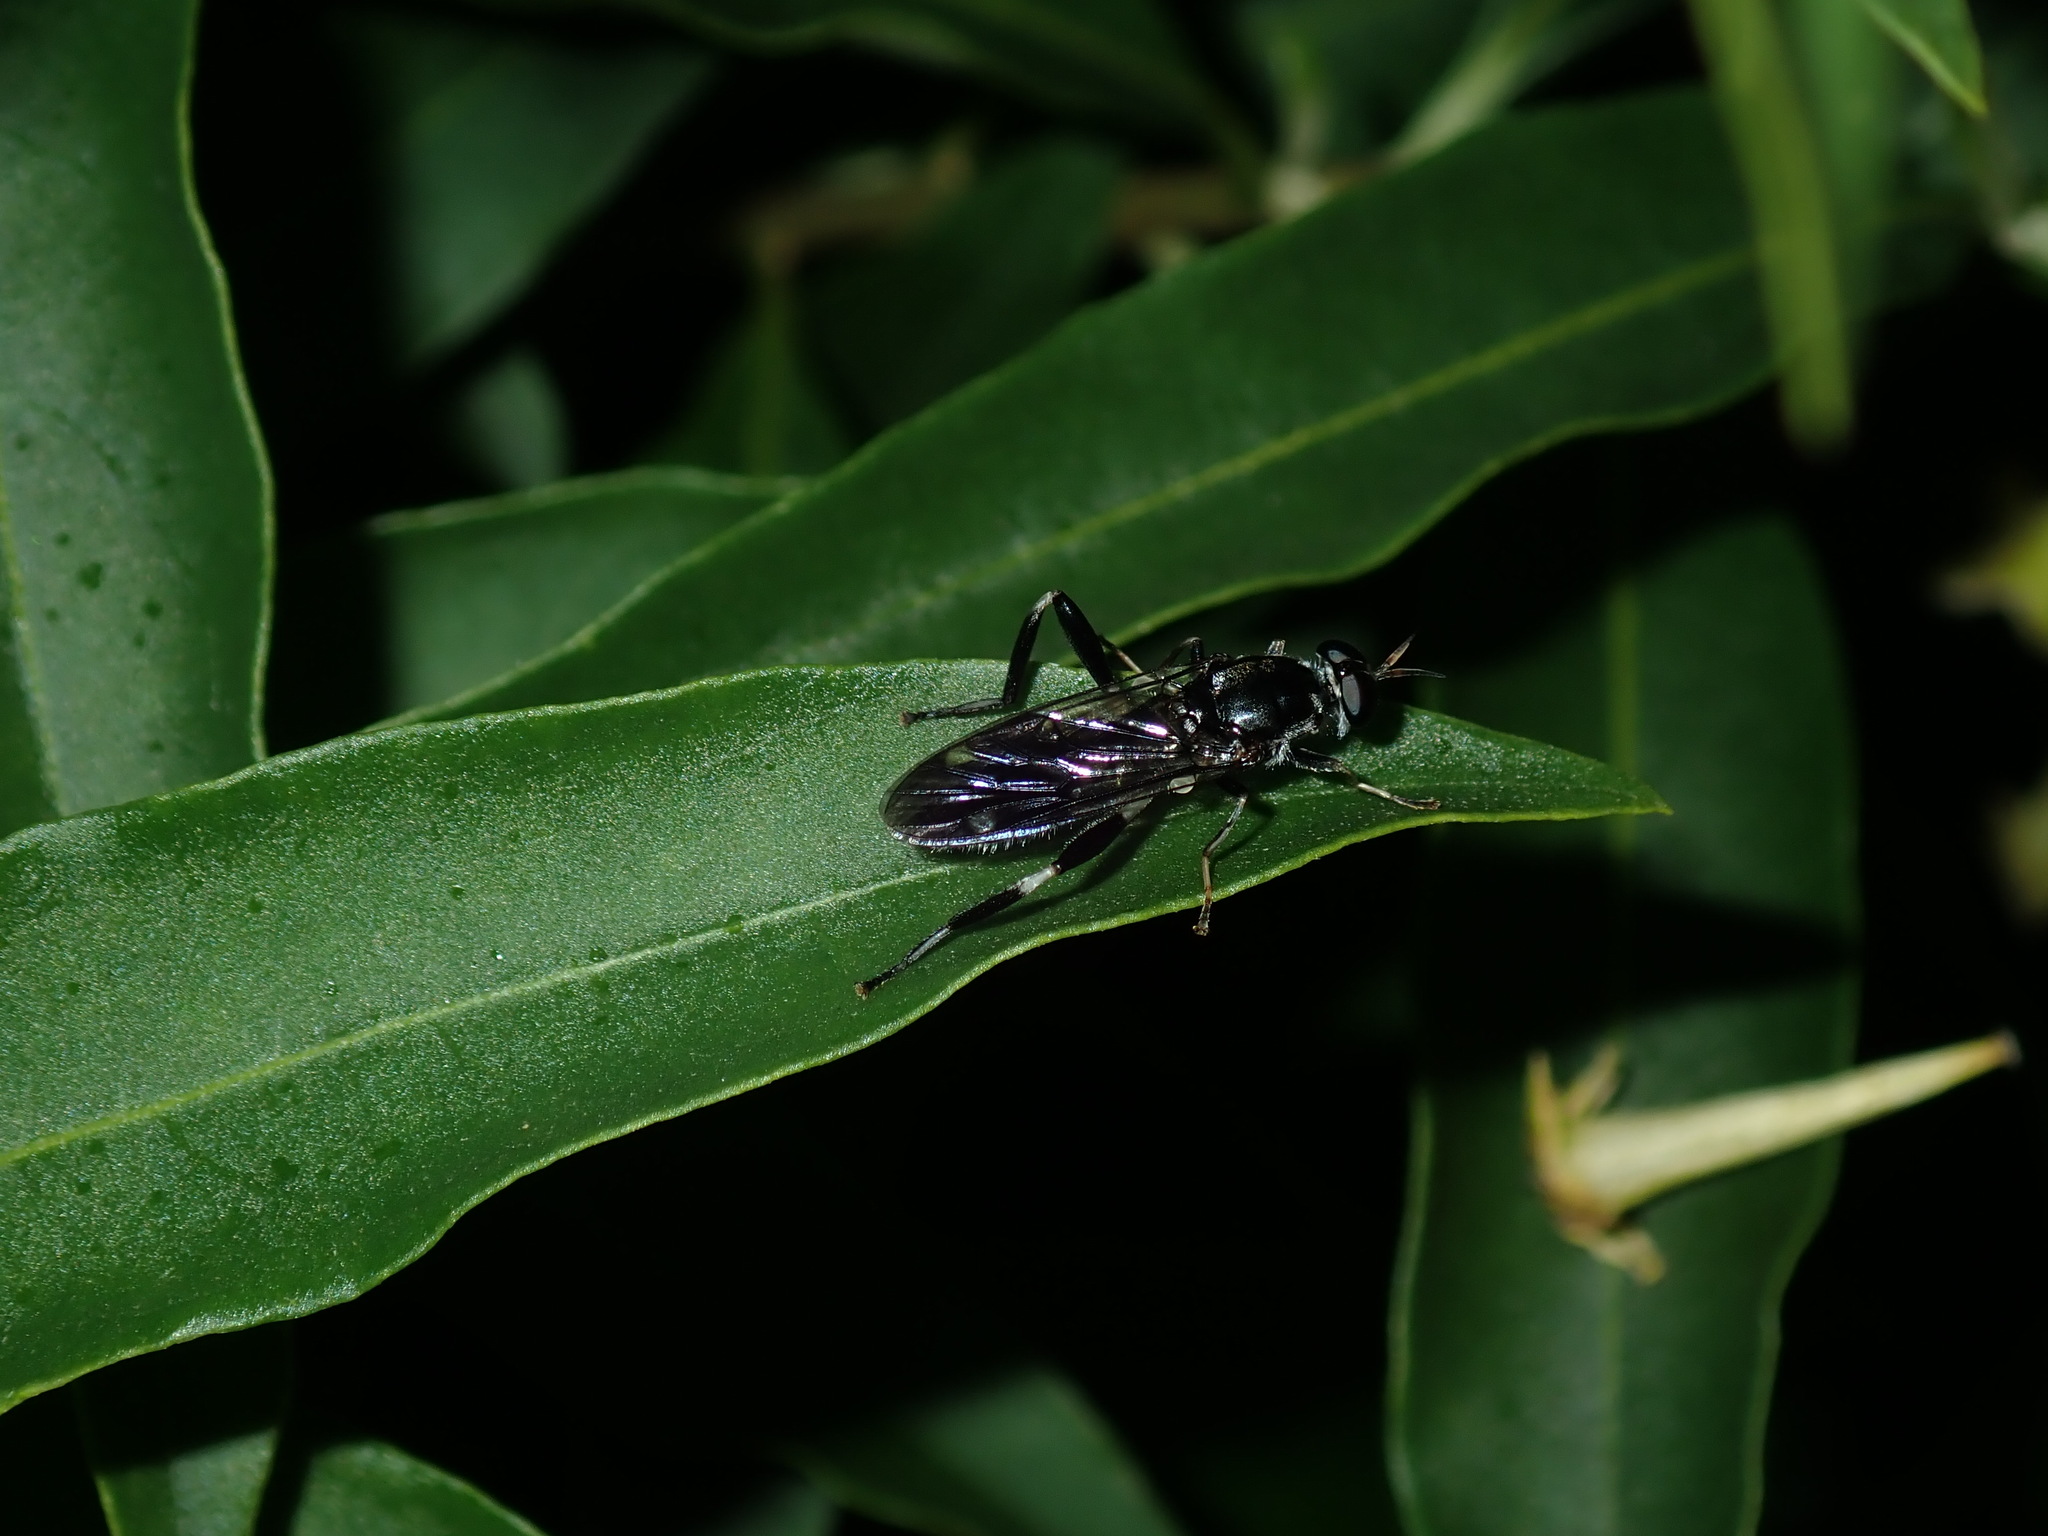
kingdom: Animalia
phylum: Arthropoda
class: Insecta
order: Diptera
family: Stratiomyidae
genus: Exaireta
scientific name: Exaireta spinigera
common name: Blue soldier fly
